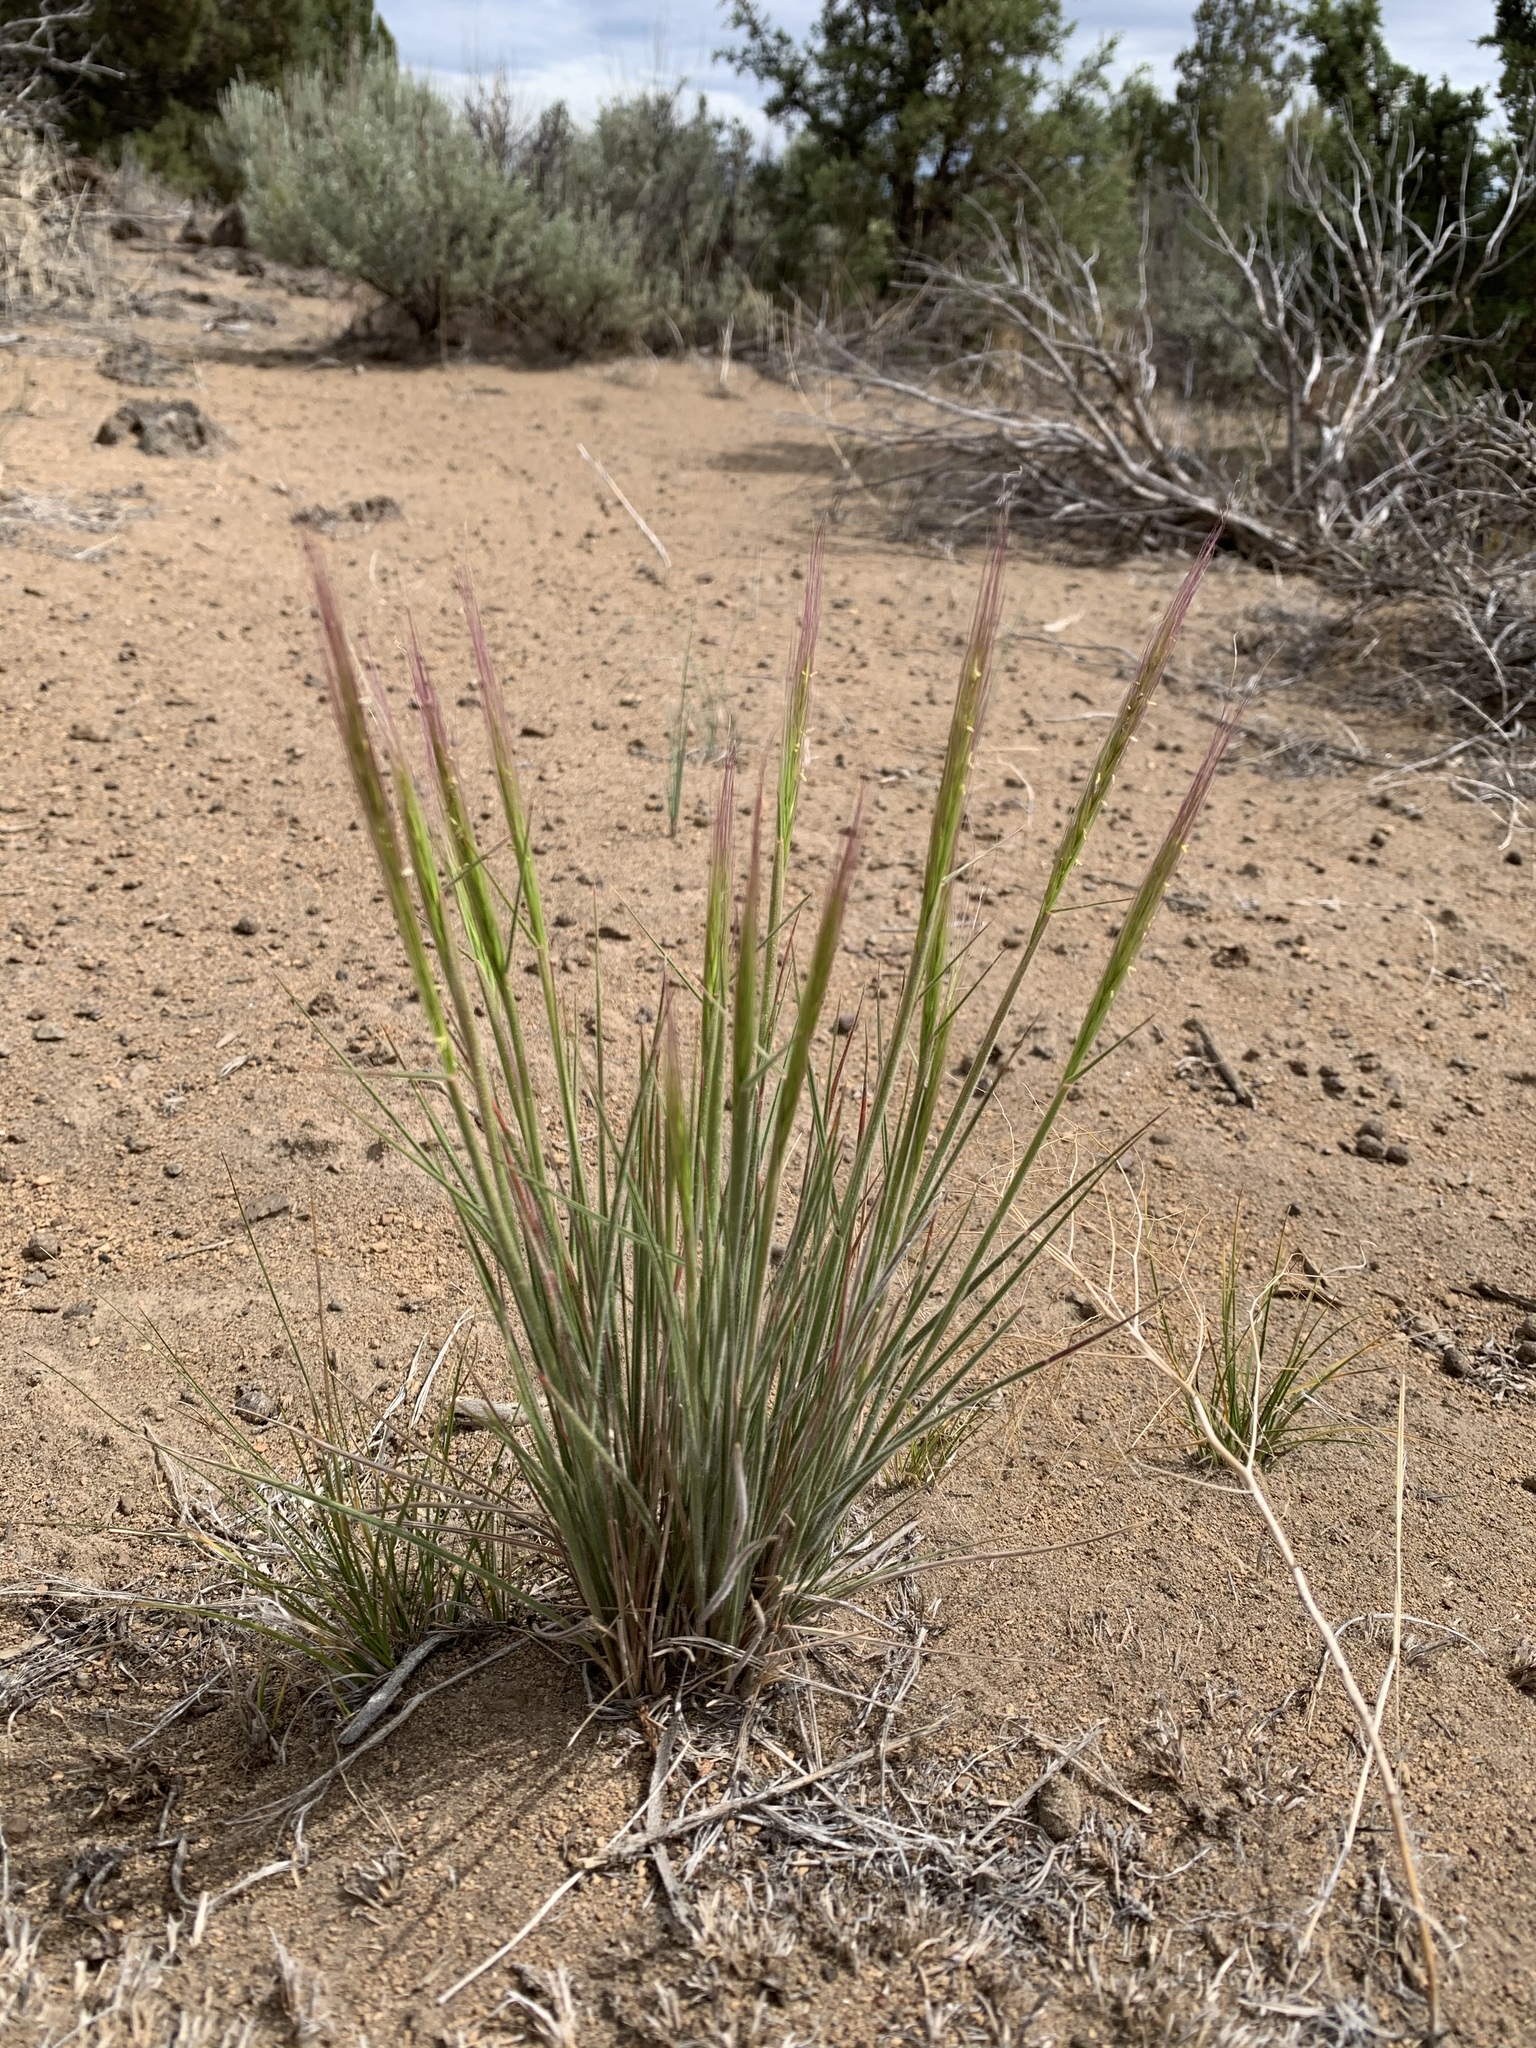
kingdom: Plantae
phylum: Tracheophyta
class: Liliopsida
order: Poales
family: Poaceae
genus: Elymus
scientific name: Elymus elymoides
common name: Bottlebrush squirreltail
